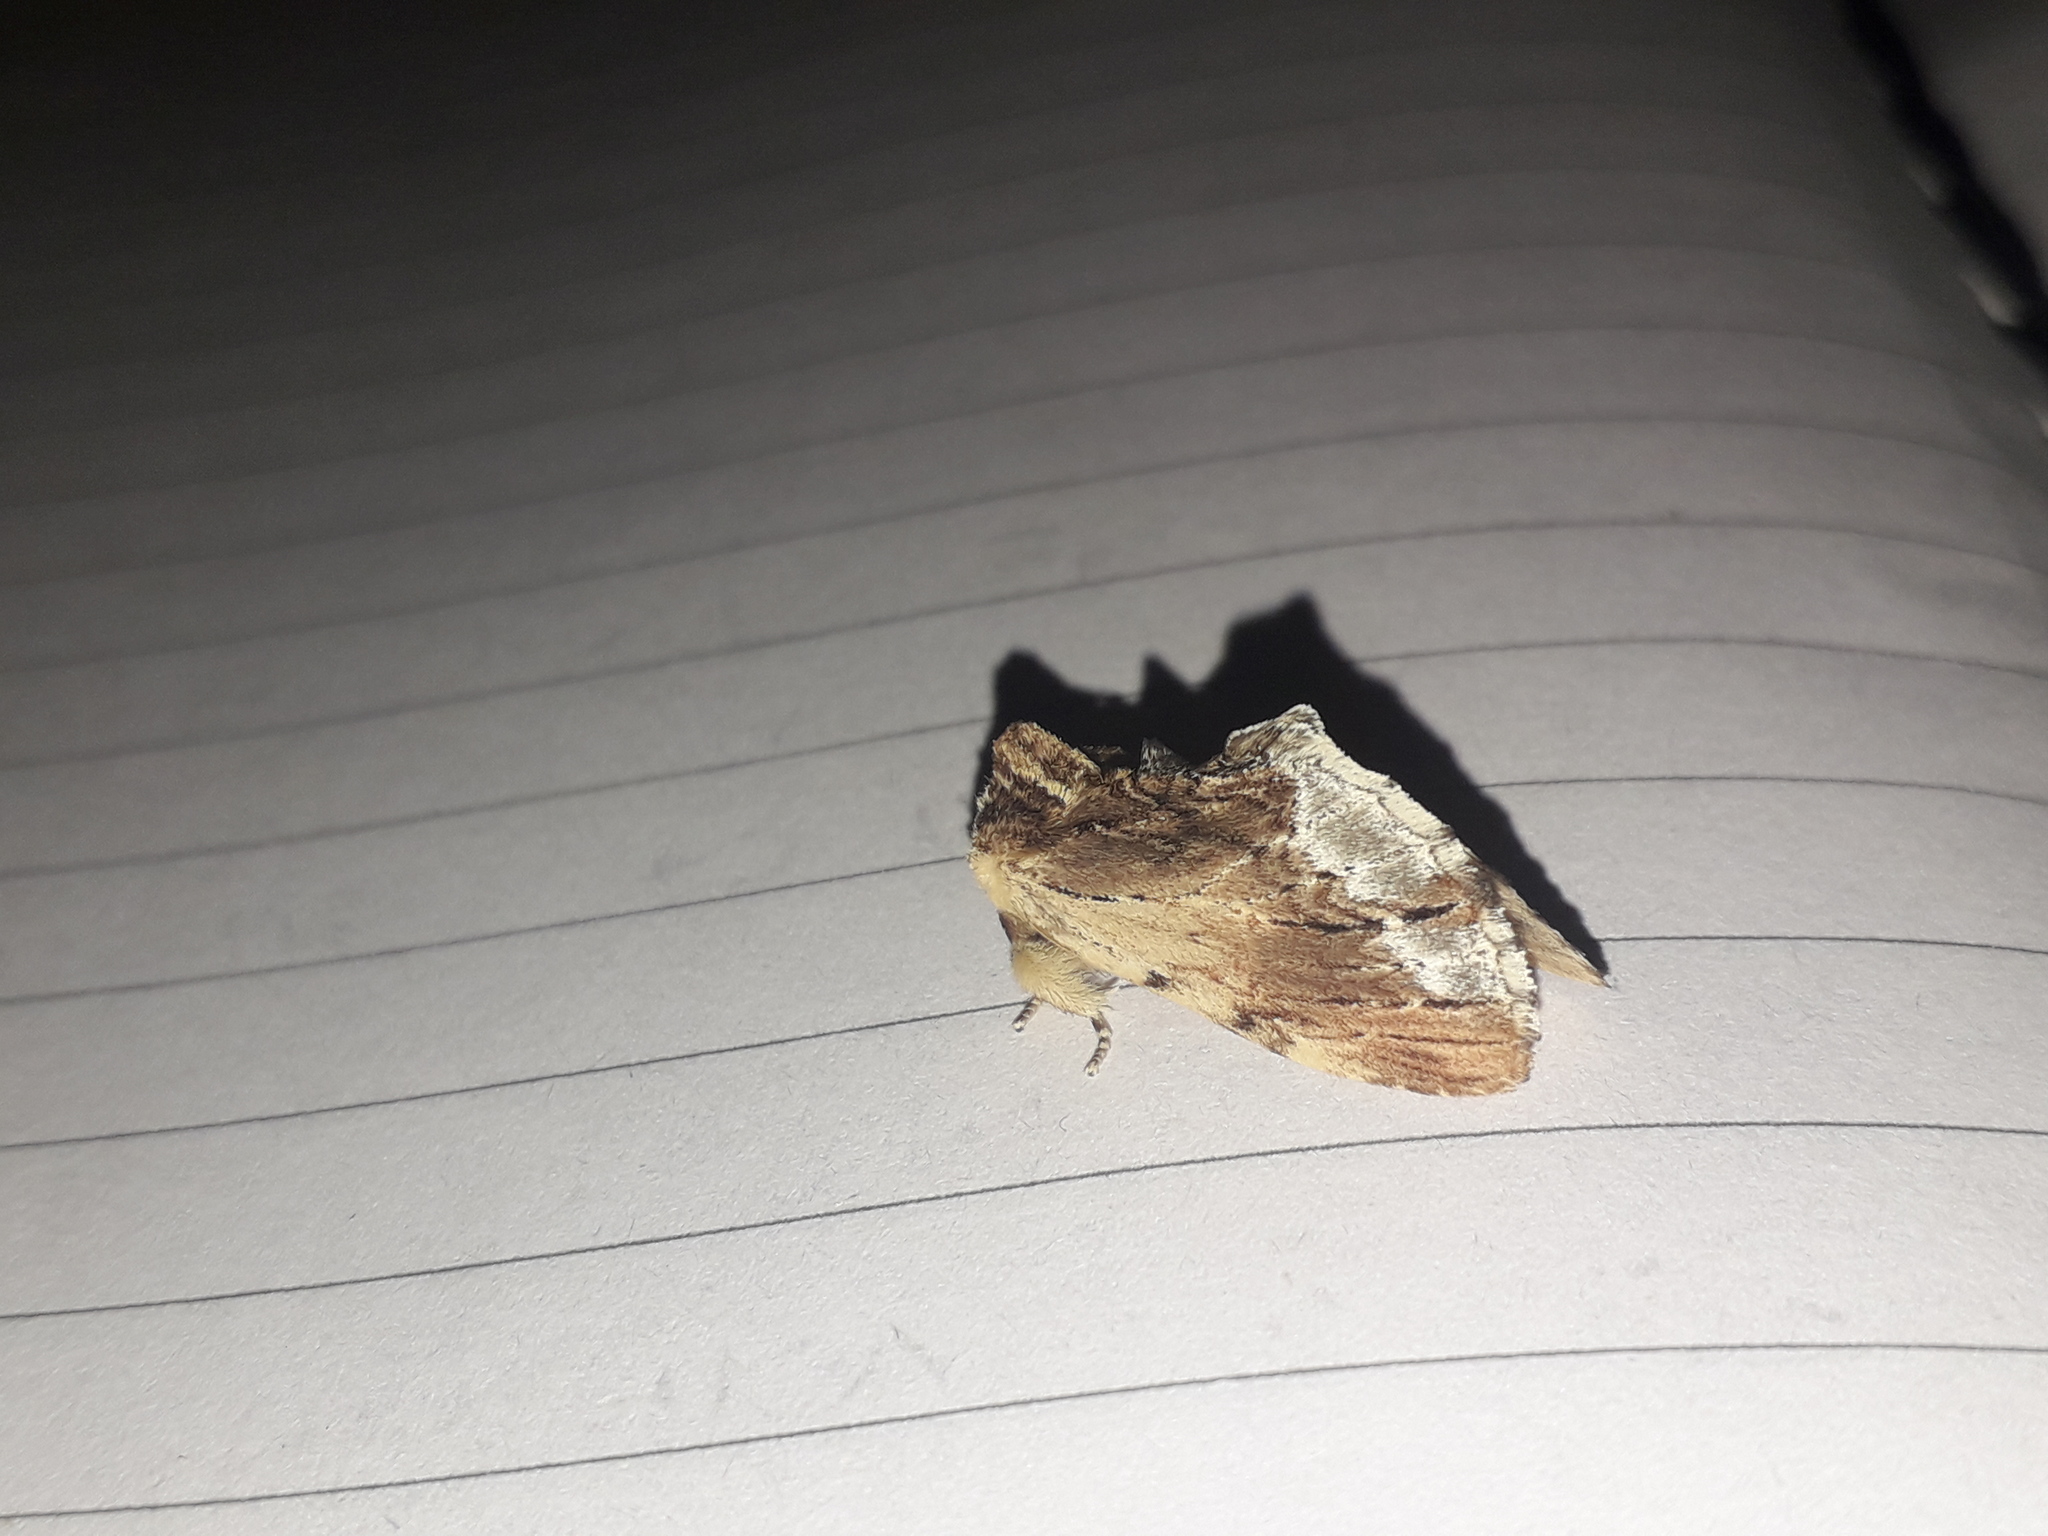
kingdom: Animalia
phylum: Arthropoda
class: Insecta
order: Lepidoptera
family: Notodontidae
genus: Ptilodon
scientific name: Ptilodon cucullina
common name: Maple prominent
